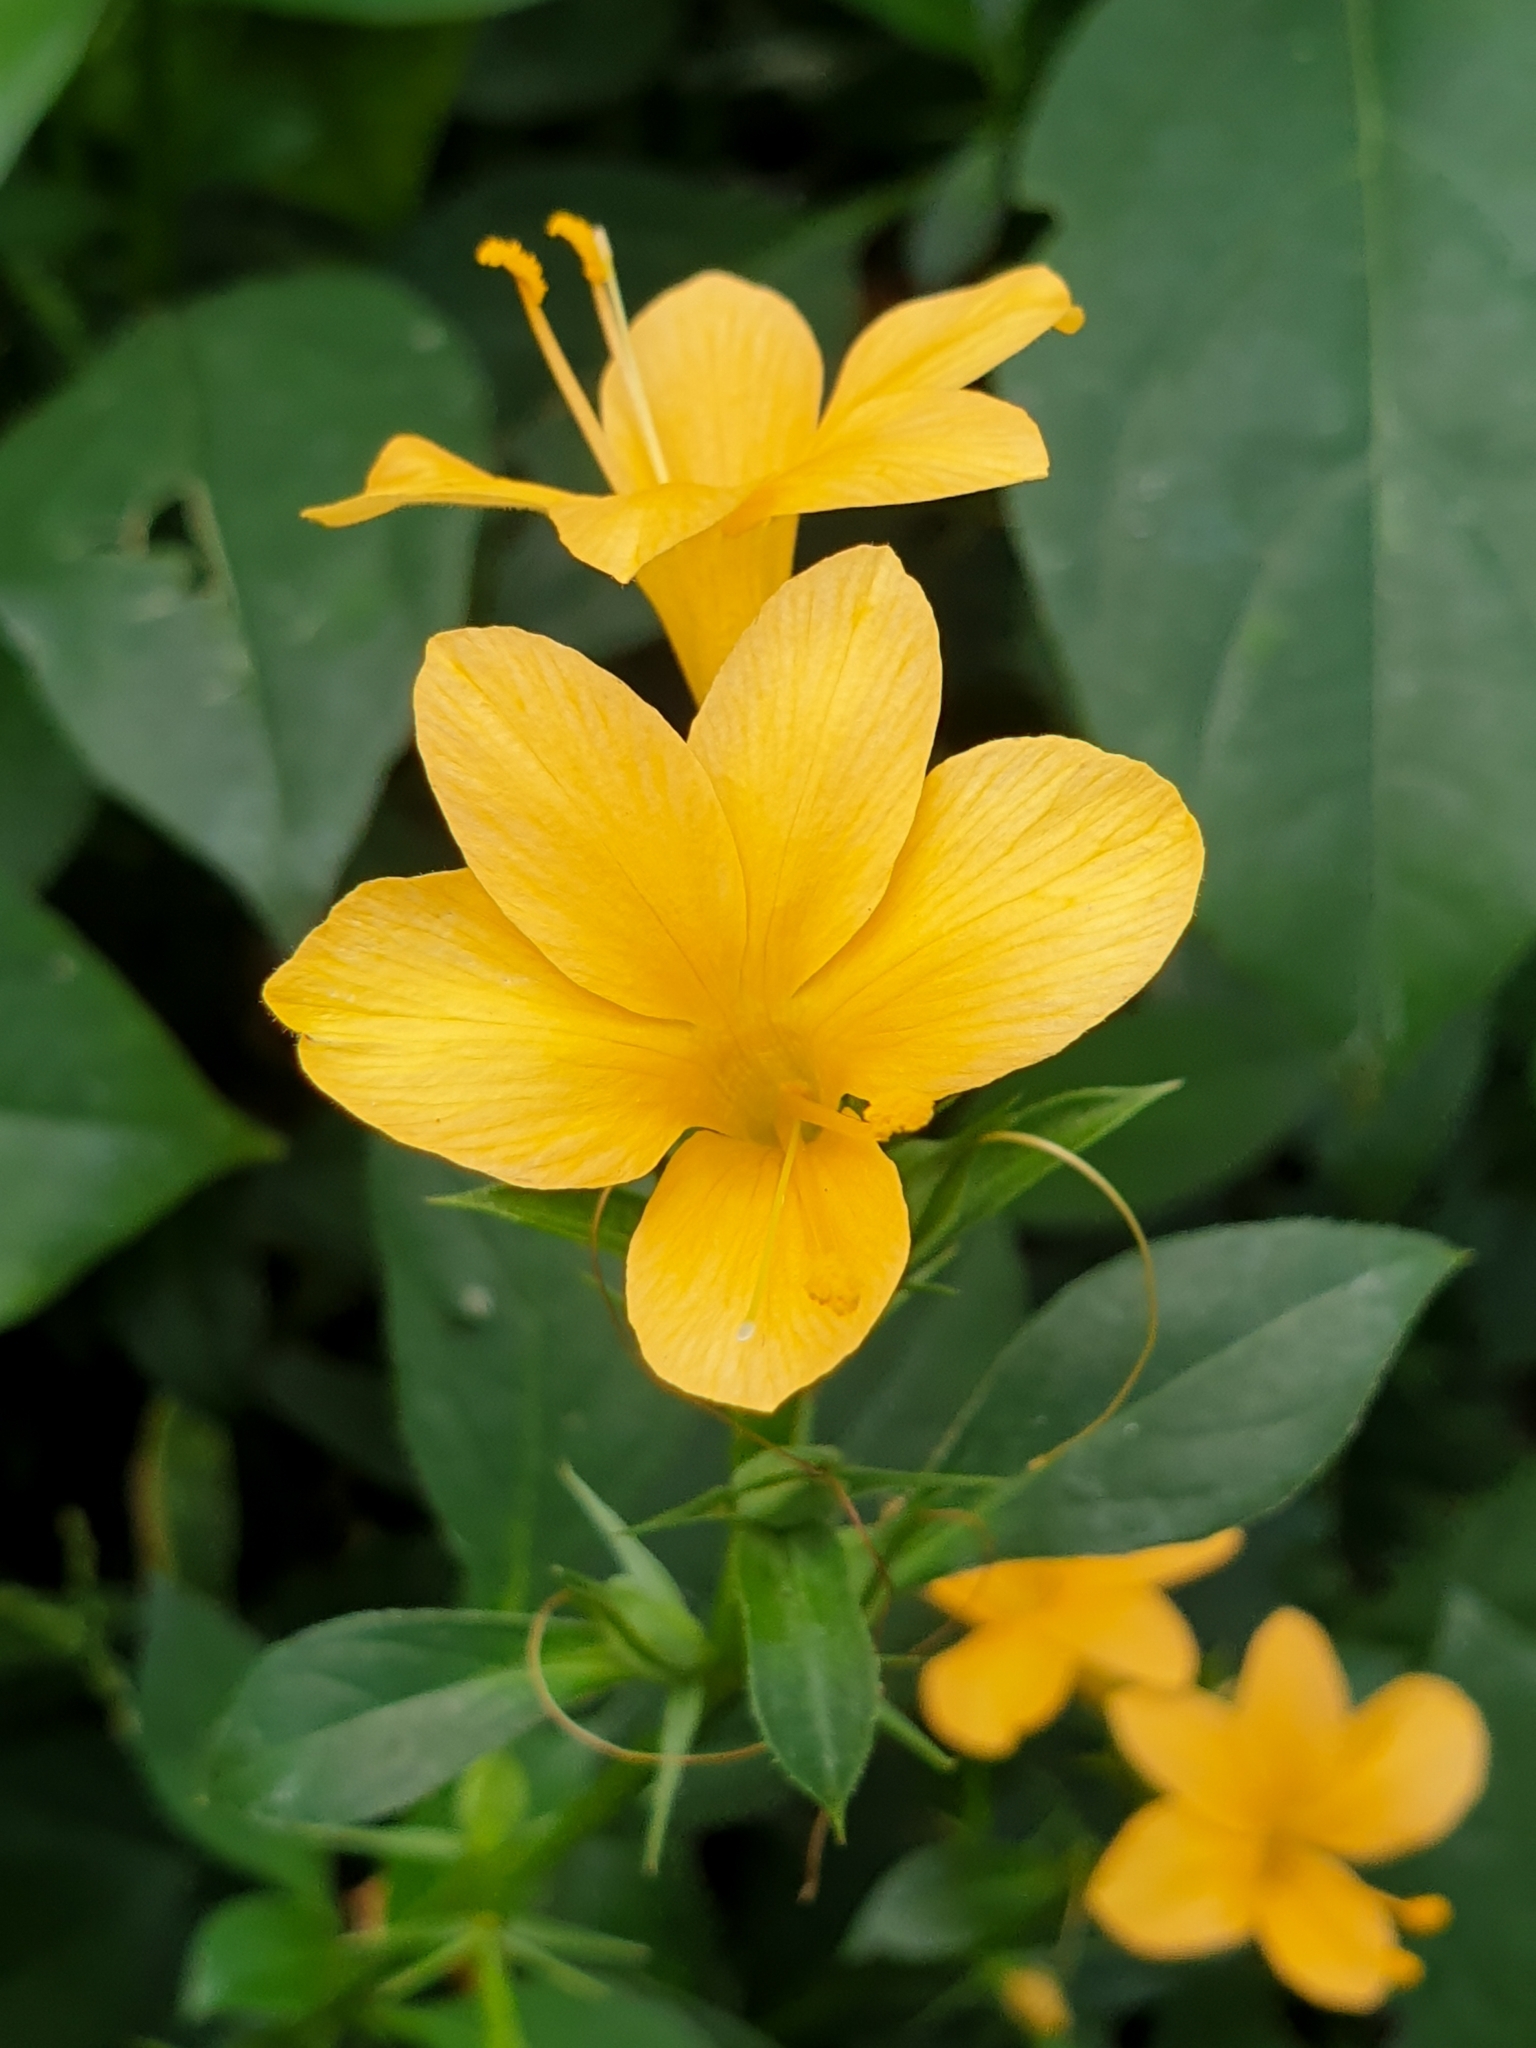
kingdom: Plantae
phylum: Tracheophyta
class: Magnoliopsida
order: Lamiales
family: Acanthaceae
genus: Barleria
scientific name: Barleria prionitis
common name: Barleria
